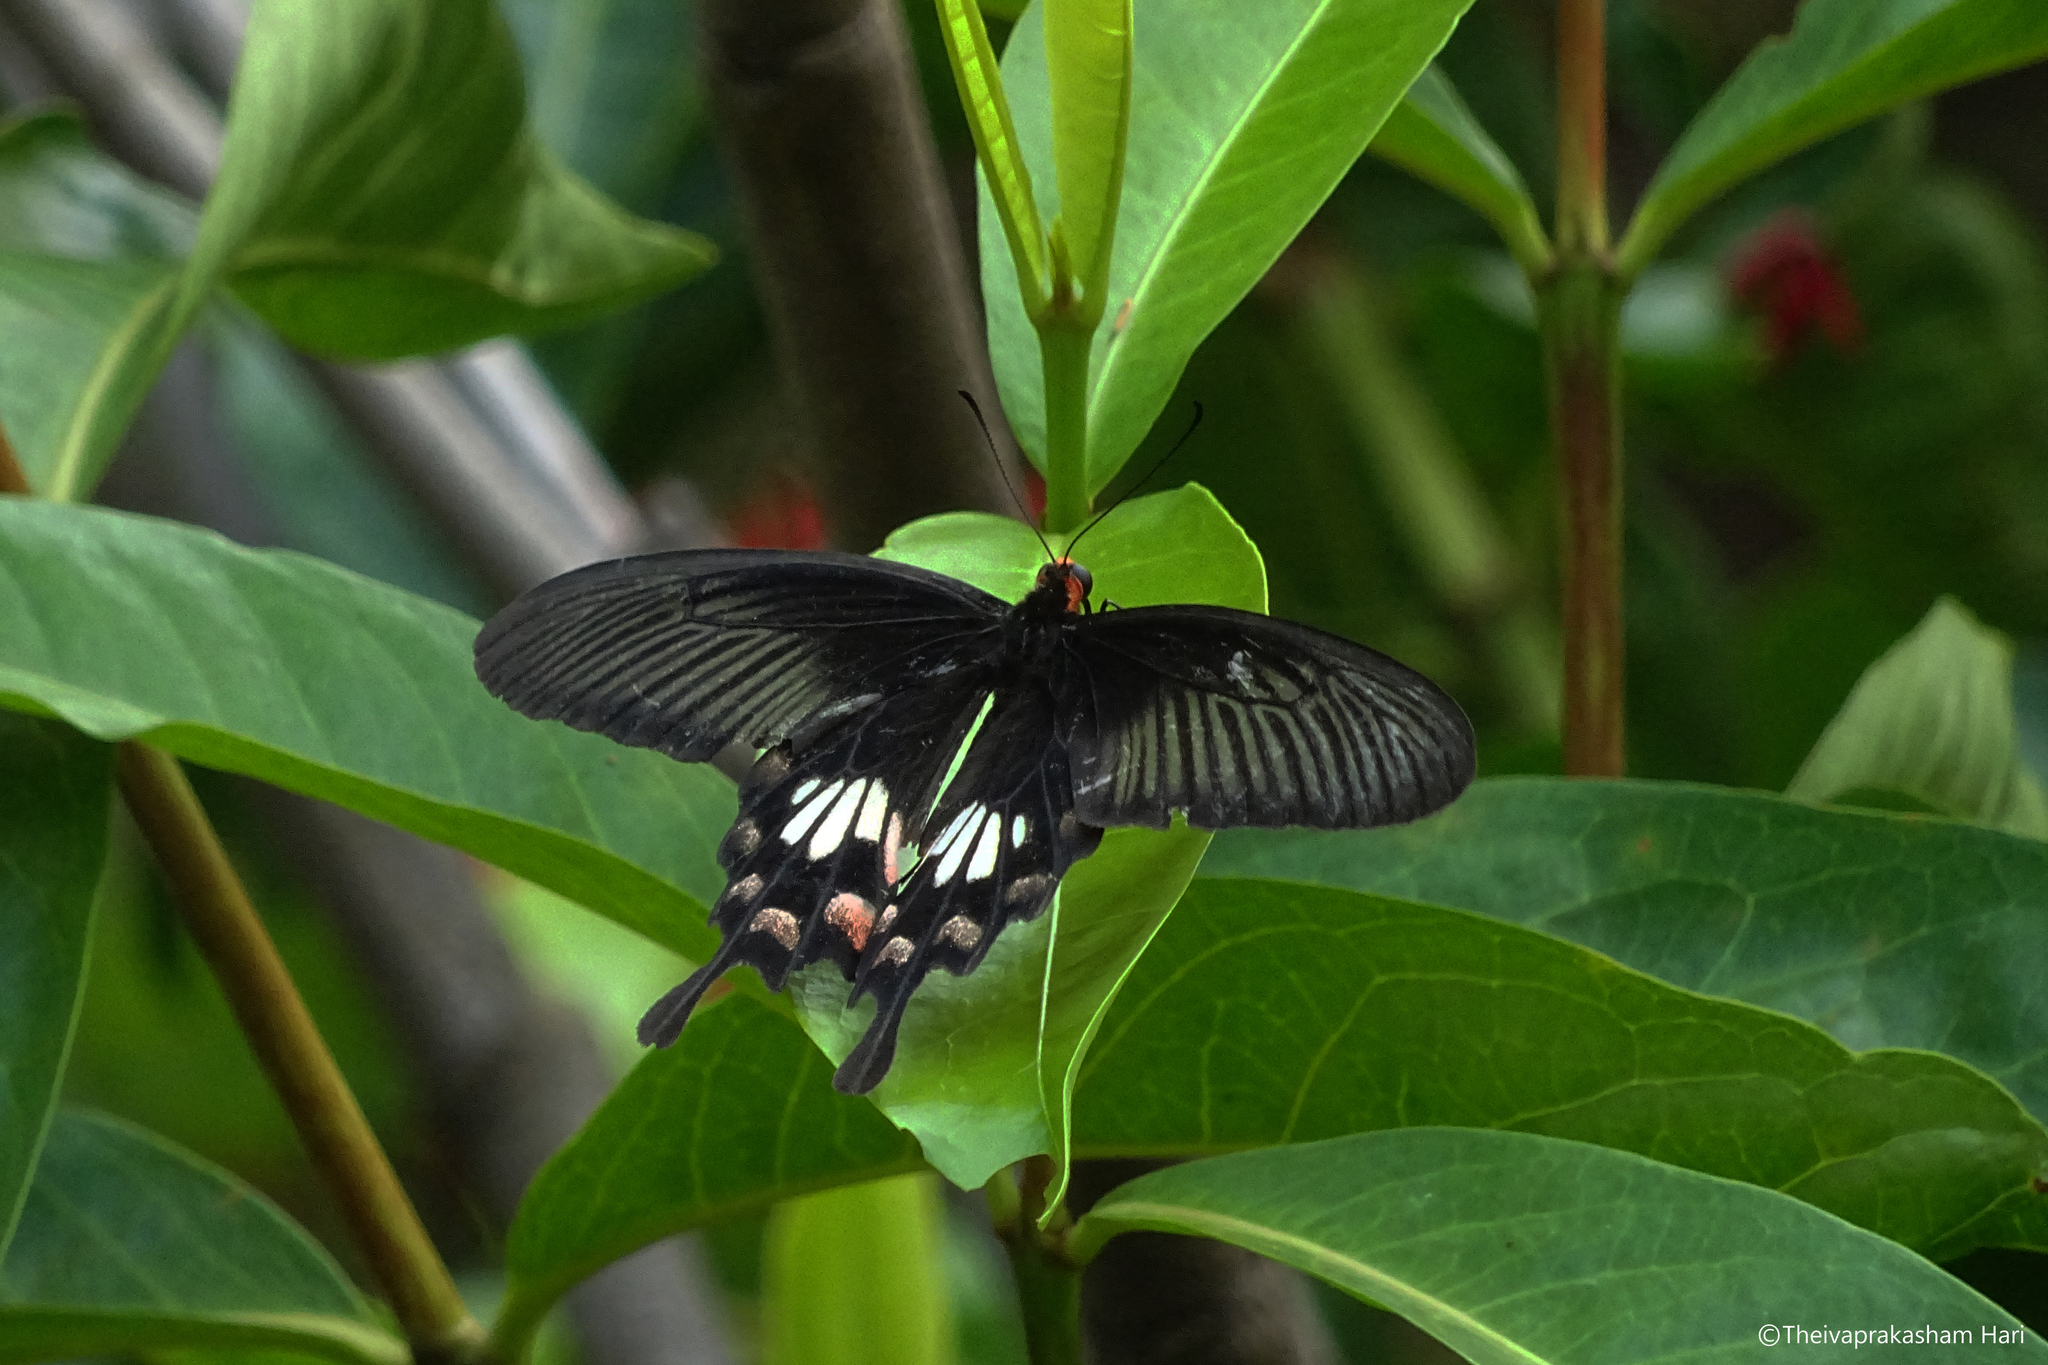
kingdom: Animalia
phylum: Arthropoda
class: Insecta
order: Lepidoptera
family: Papilionidae
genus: Pachliopta
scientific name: Pachliopta aristolochiae
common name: Common rose
